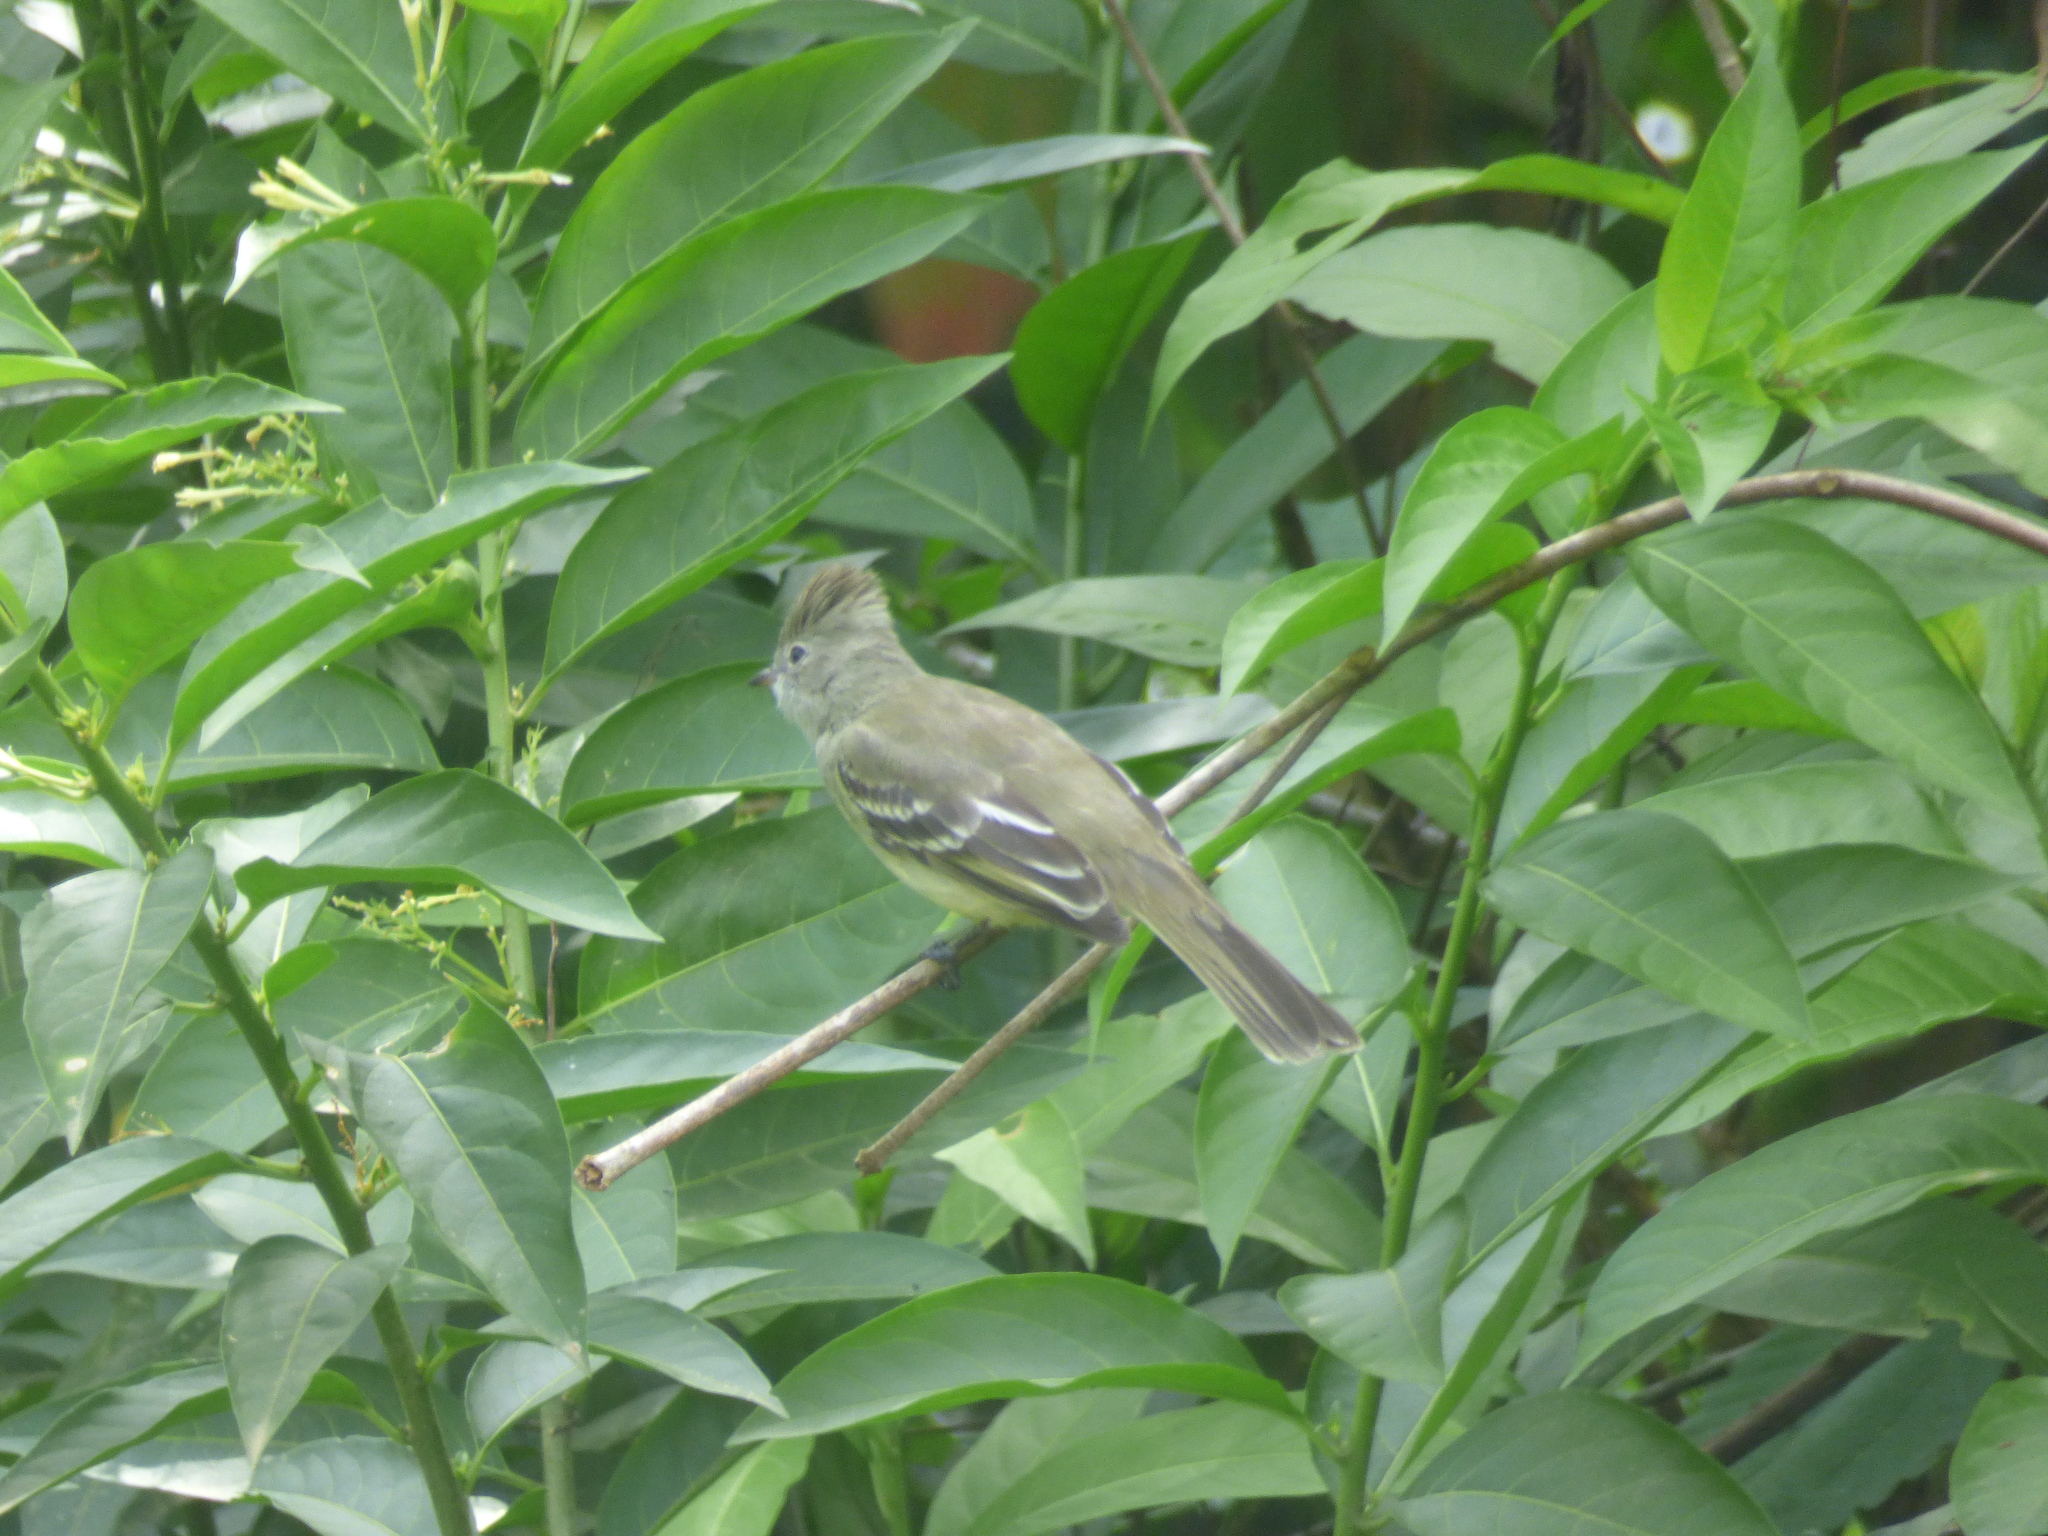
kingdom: Animalia
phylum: Chordata
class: Aves
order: Passeriformes
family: Tyrannidae
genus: Elaenia
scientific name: Elaenia flavogaster
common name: Yellow-bellied elaenia
